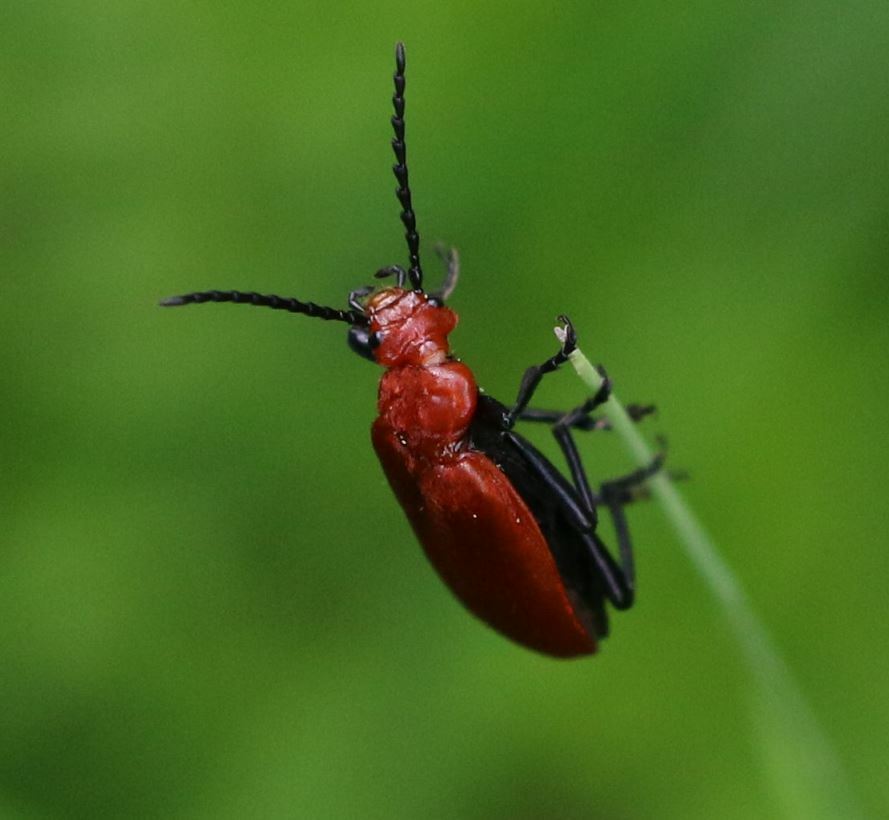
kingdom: Animalia
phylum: Arthropoda
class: Insecta
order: Coleoptera
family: Pyrochroidae
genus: Pyrochroa
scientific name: Pyrochroa serraticornis
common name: Red-headed cardinal beetle
